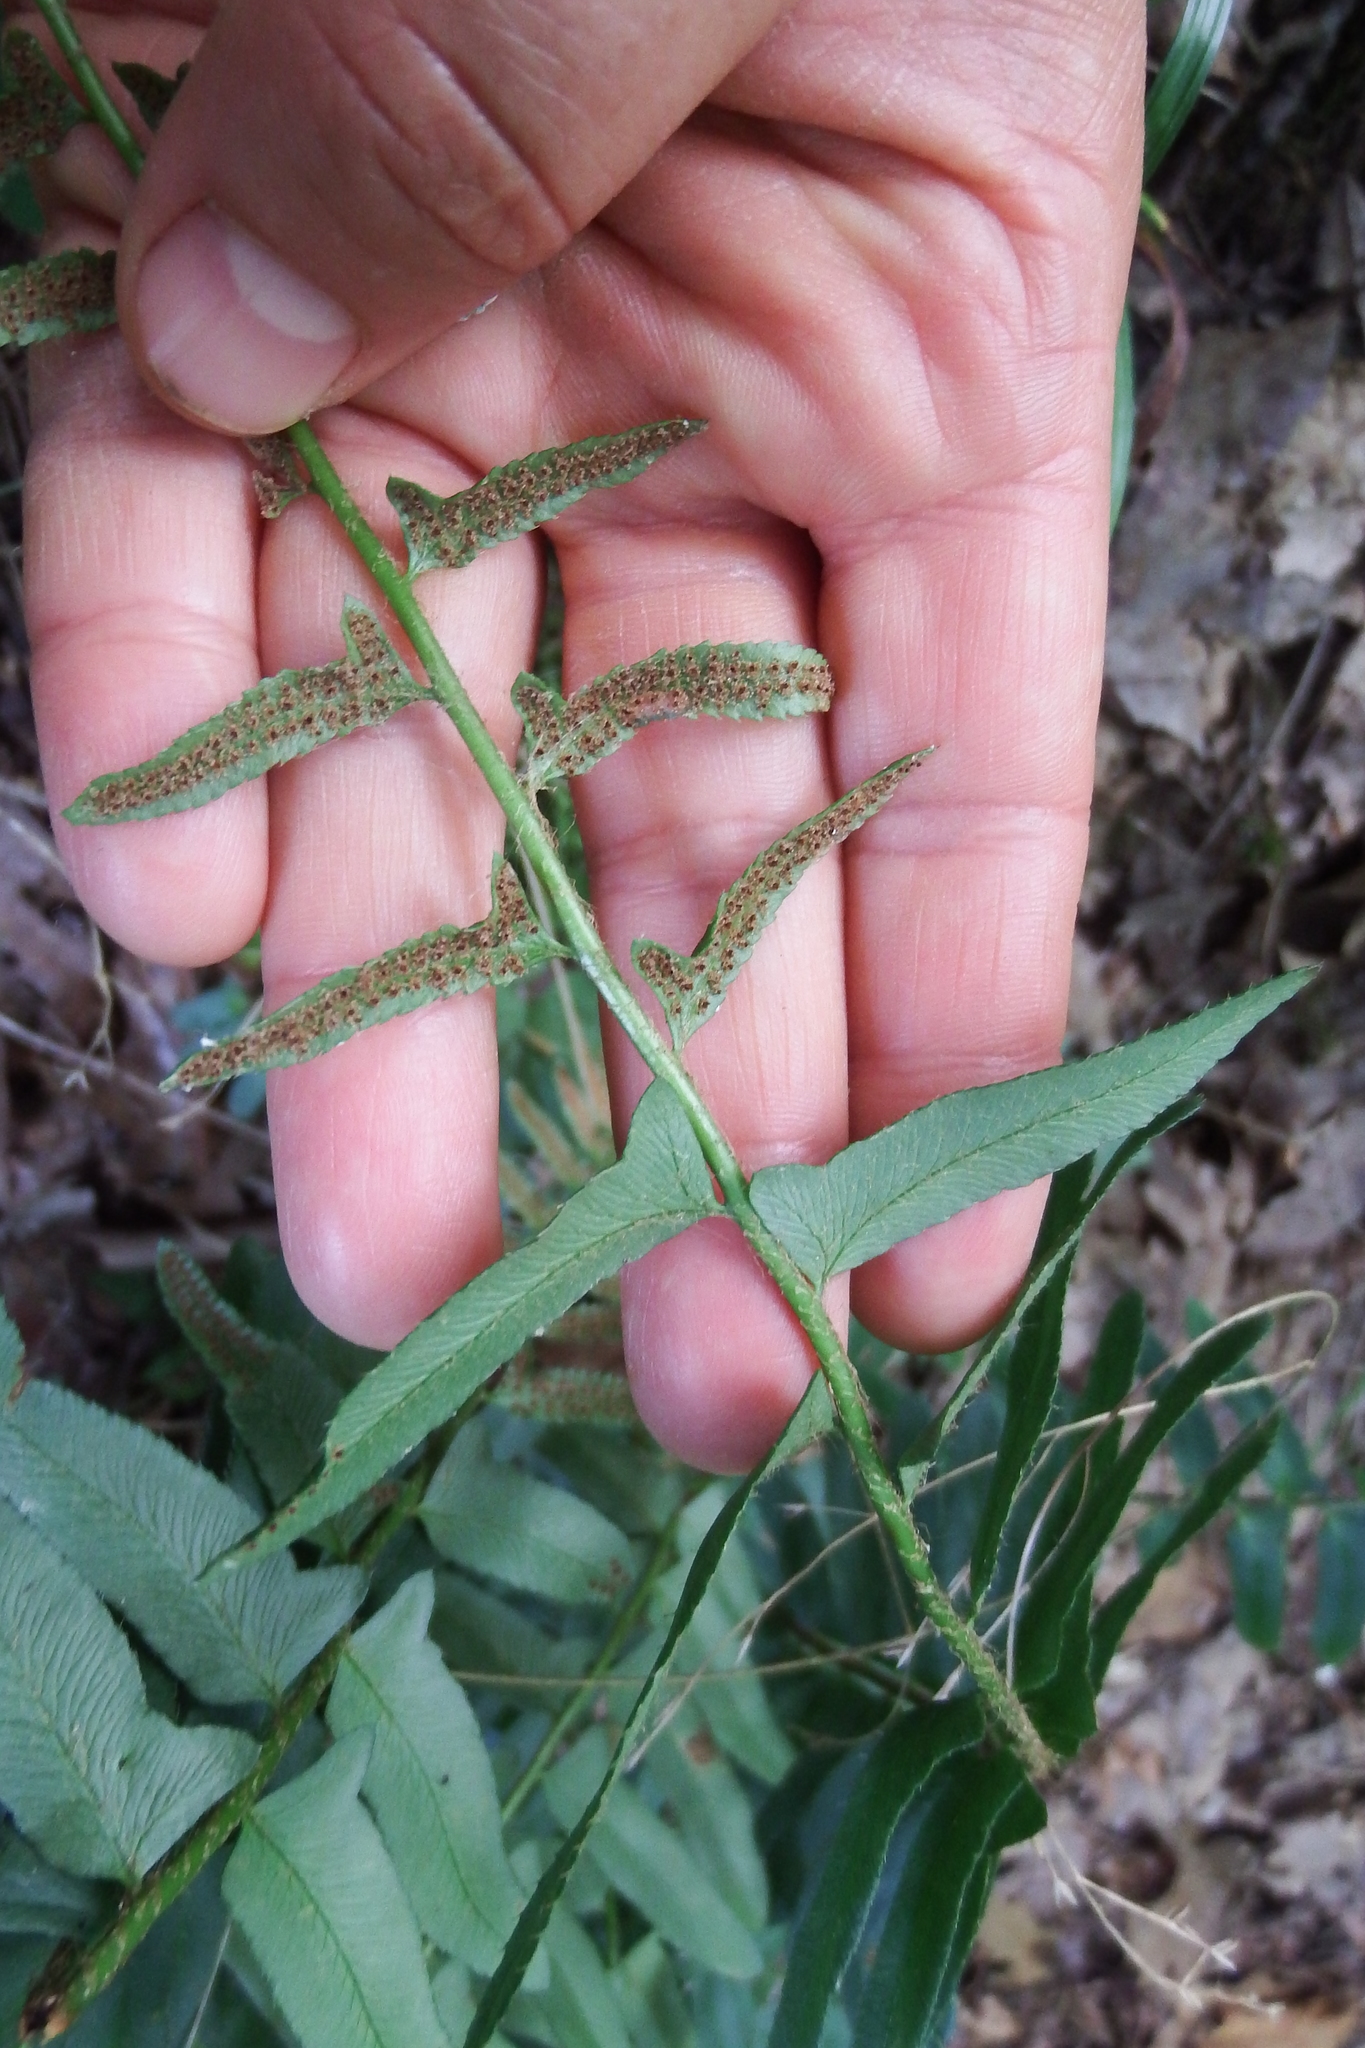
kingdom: Plantae
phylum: Tracheophyta
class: Polypodiopsida
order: Polypodiales
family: Dryopteridaceae
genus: Polystichum
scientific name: Polystichum acrostichoides
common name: Christmas fern
